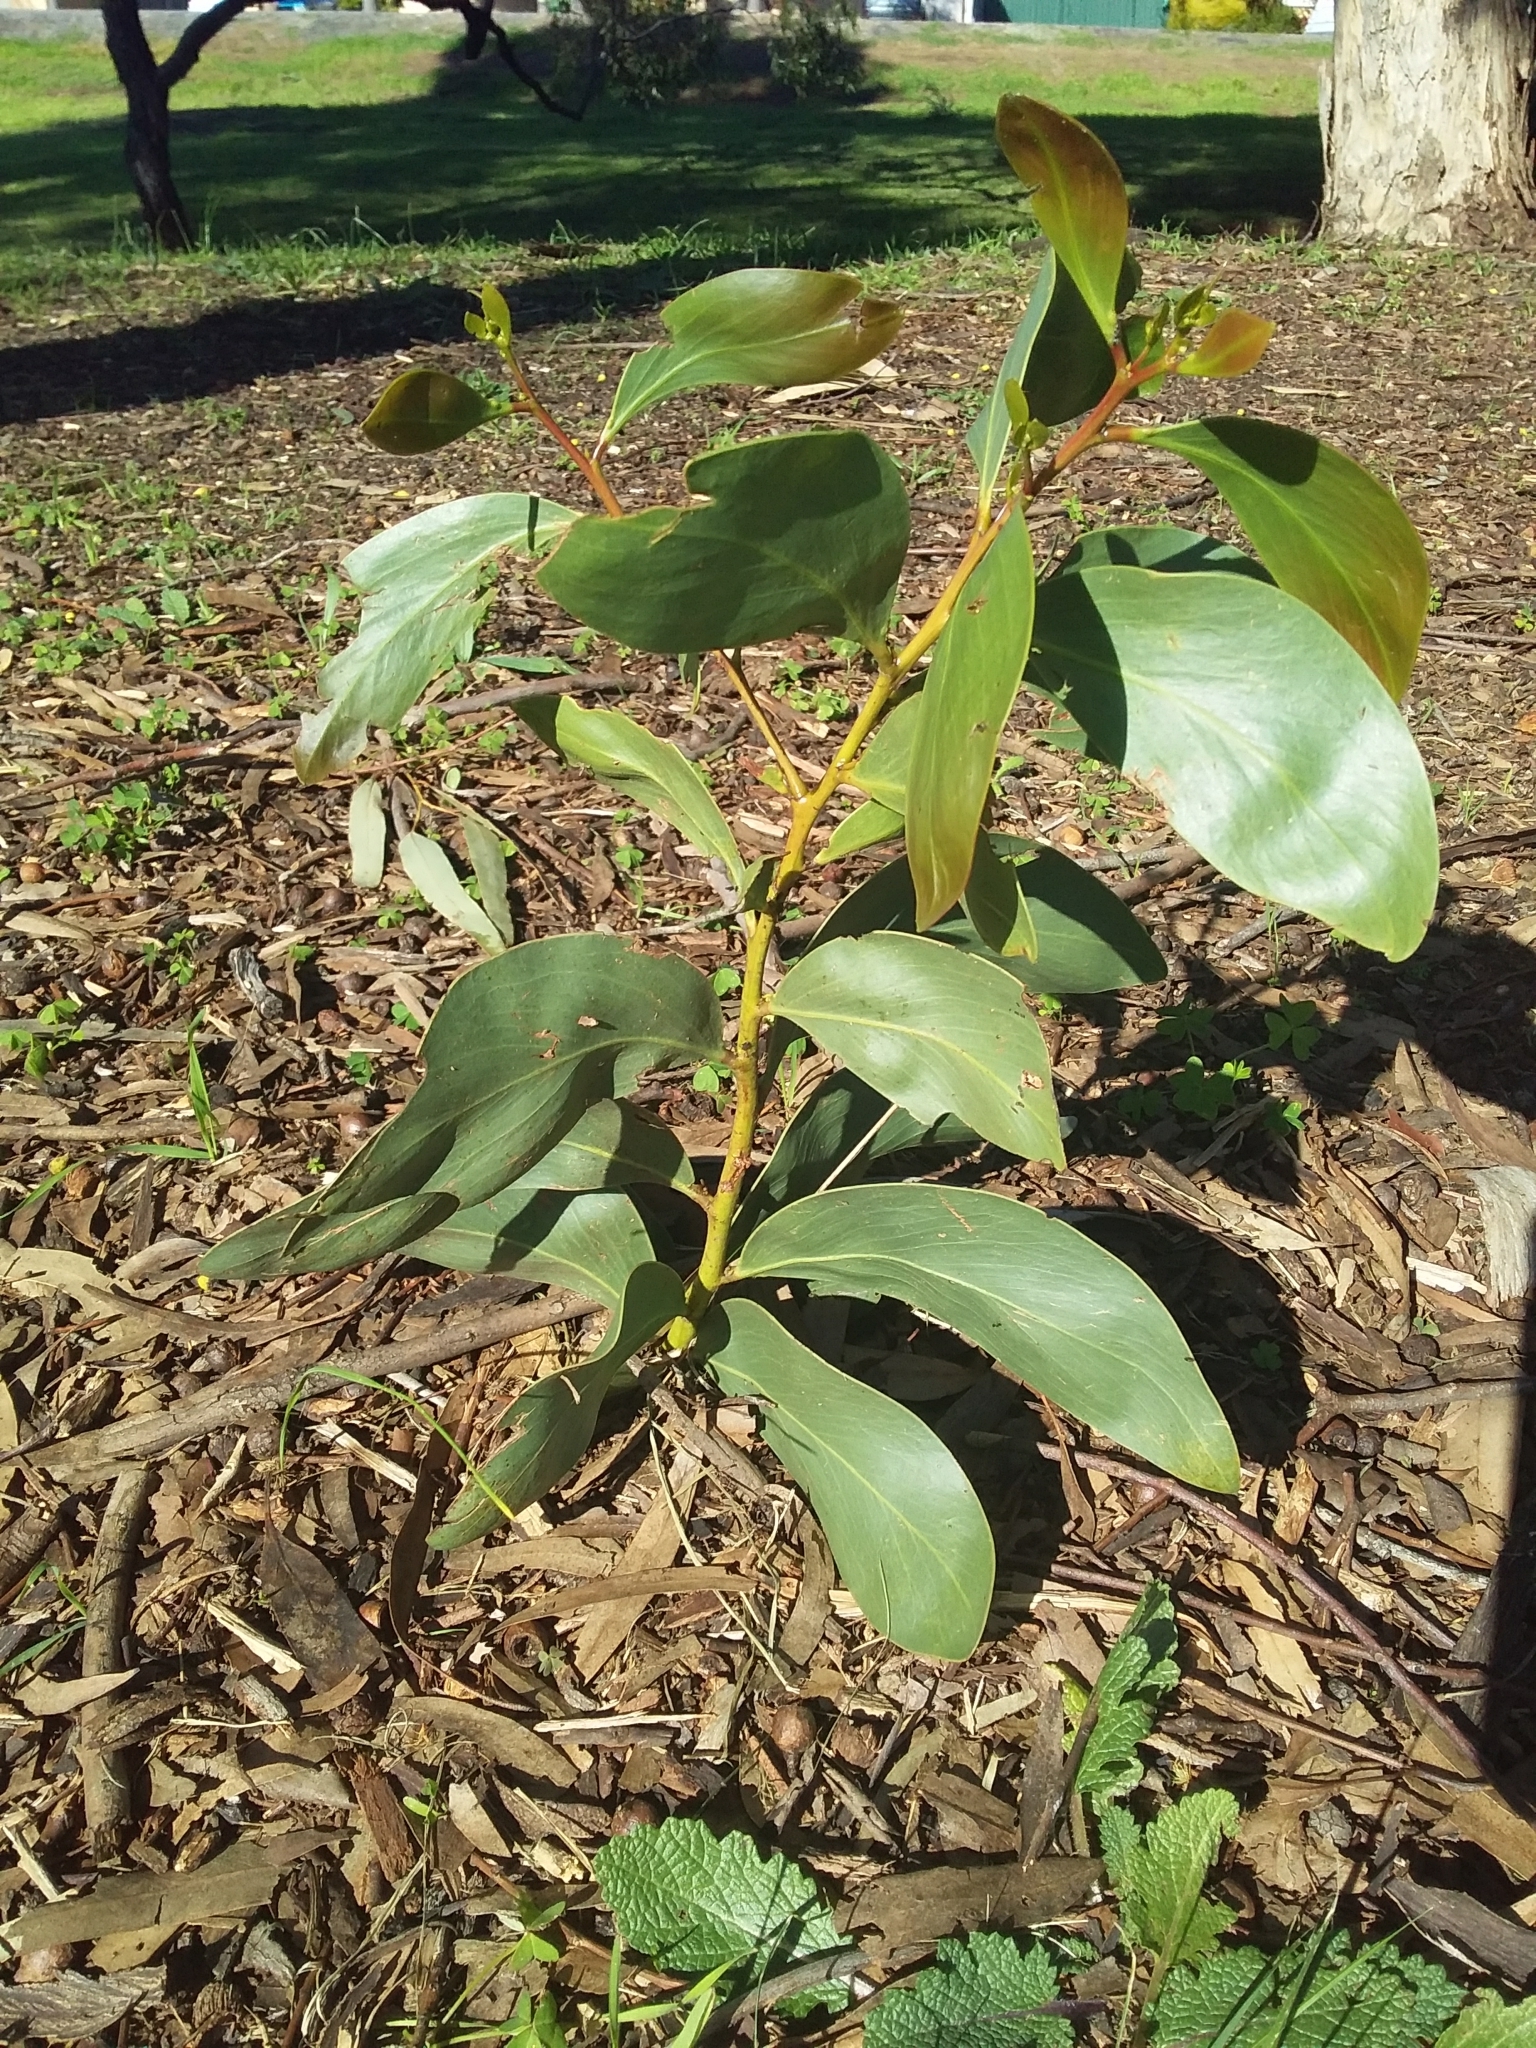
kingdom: Plantae
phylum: Tracheophyta
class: Magnoliopsida
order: Fabales
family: Fabaceae
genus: Acacia
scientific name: Acacia pycnantha
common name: Golden wattle
